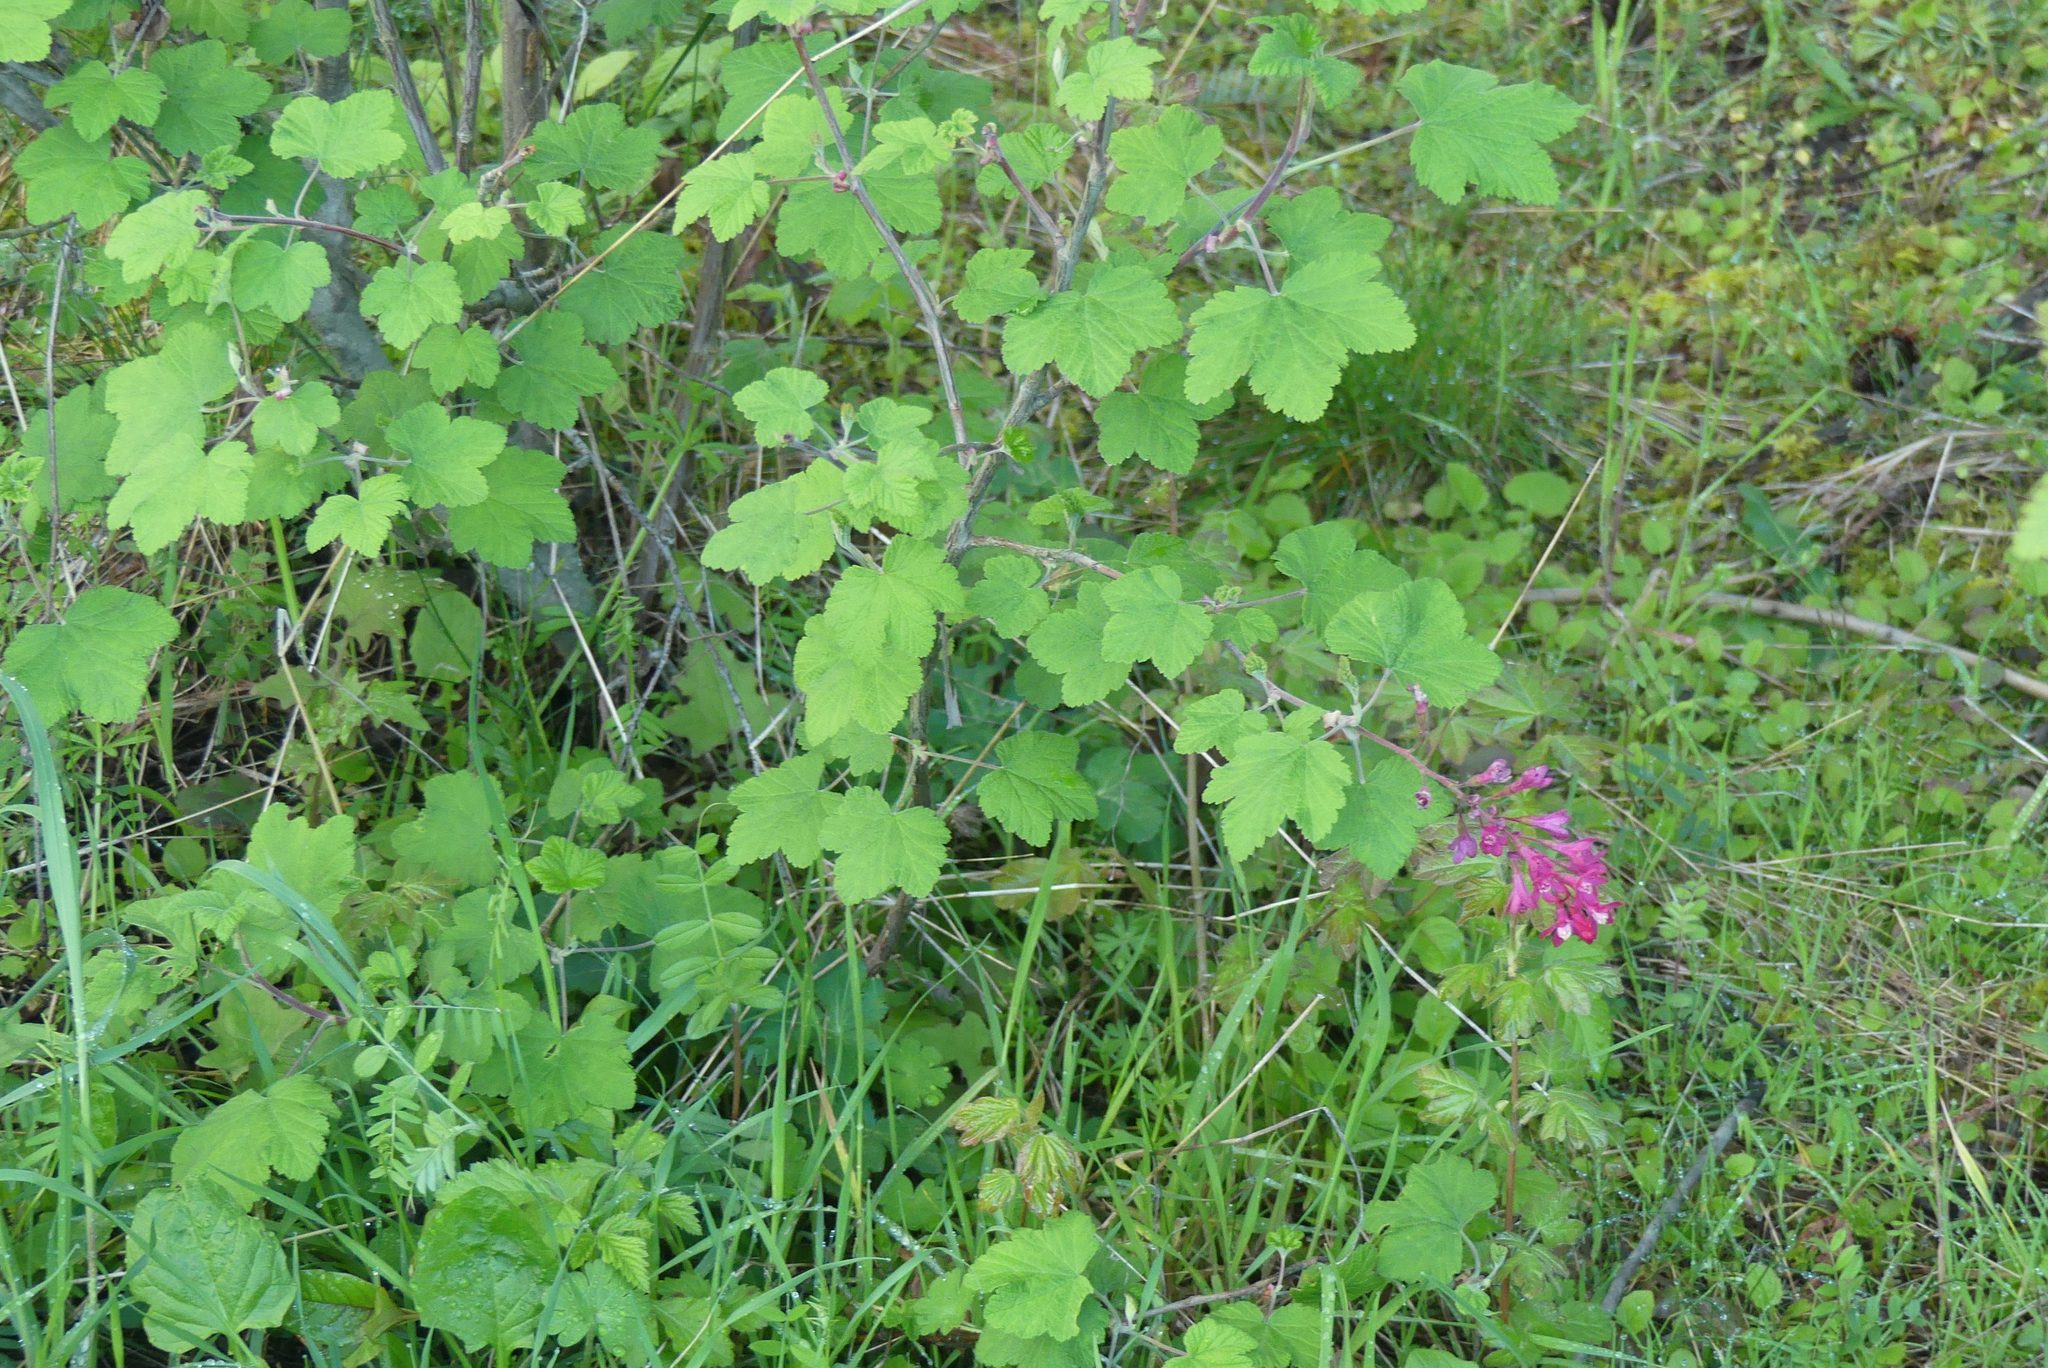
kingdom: Plantae
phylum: Tracheophyta
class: Magnoliopsida
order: Saxifragales
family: Grossulariaceae
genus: Ribes
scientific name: Ribes sanguineum
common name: Flowering currant
